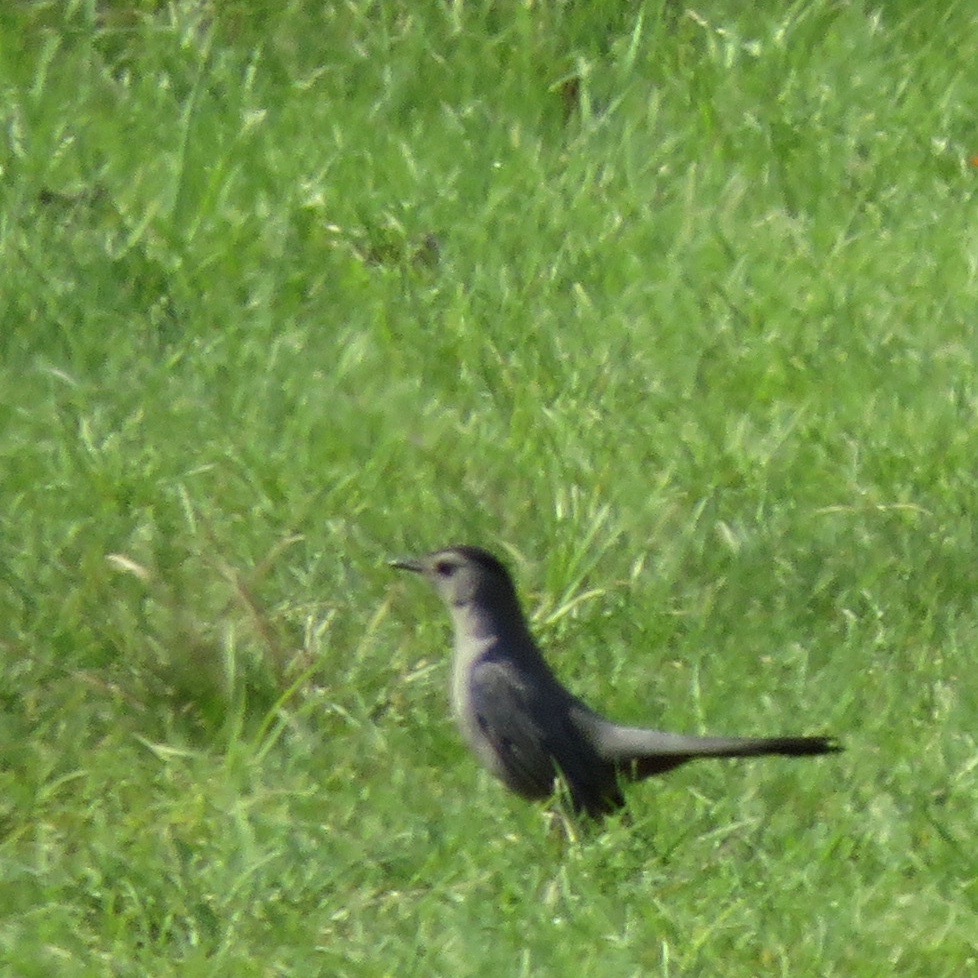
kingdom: Animalia
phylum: Chordata
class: Aves
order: Passeriformes
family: Mimidae
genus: Dumetella
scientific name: Dumetella carolinensis
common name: Gray catbird
